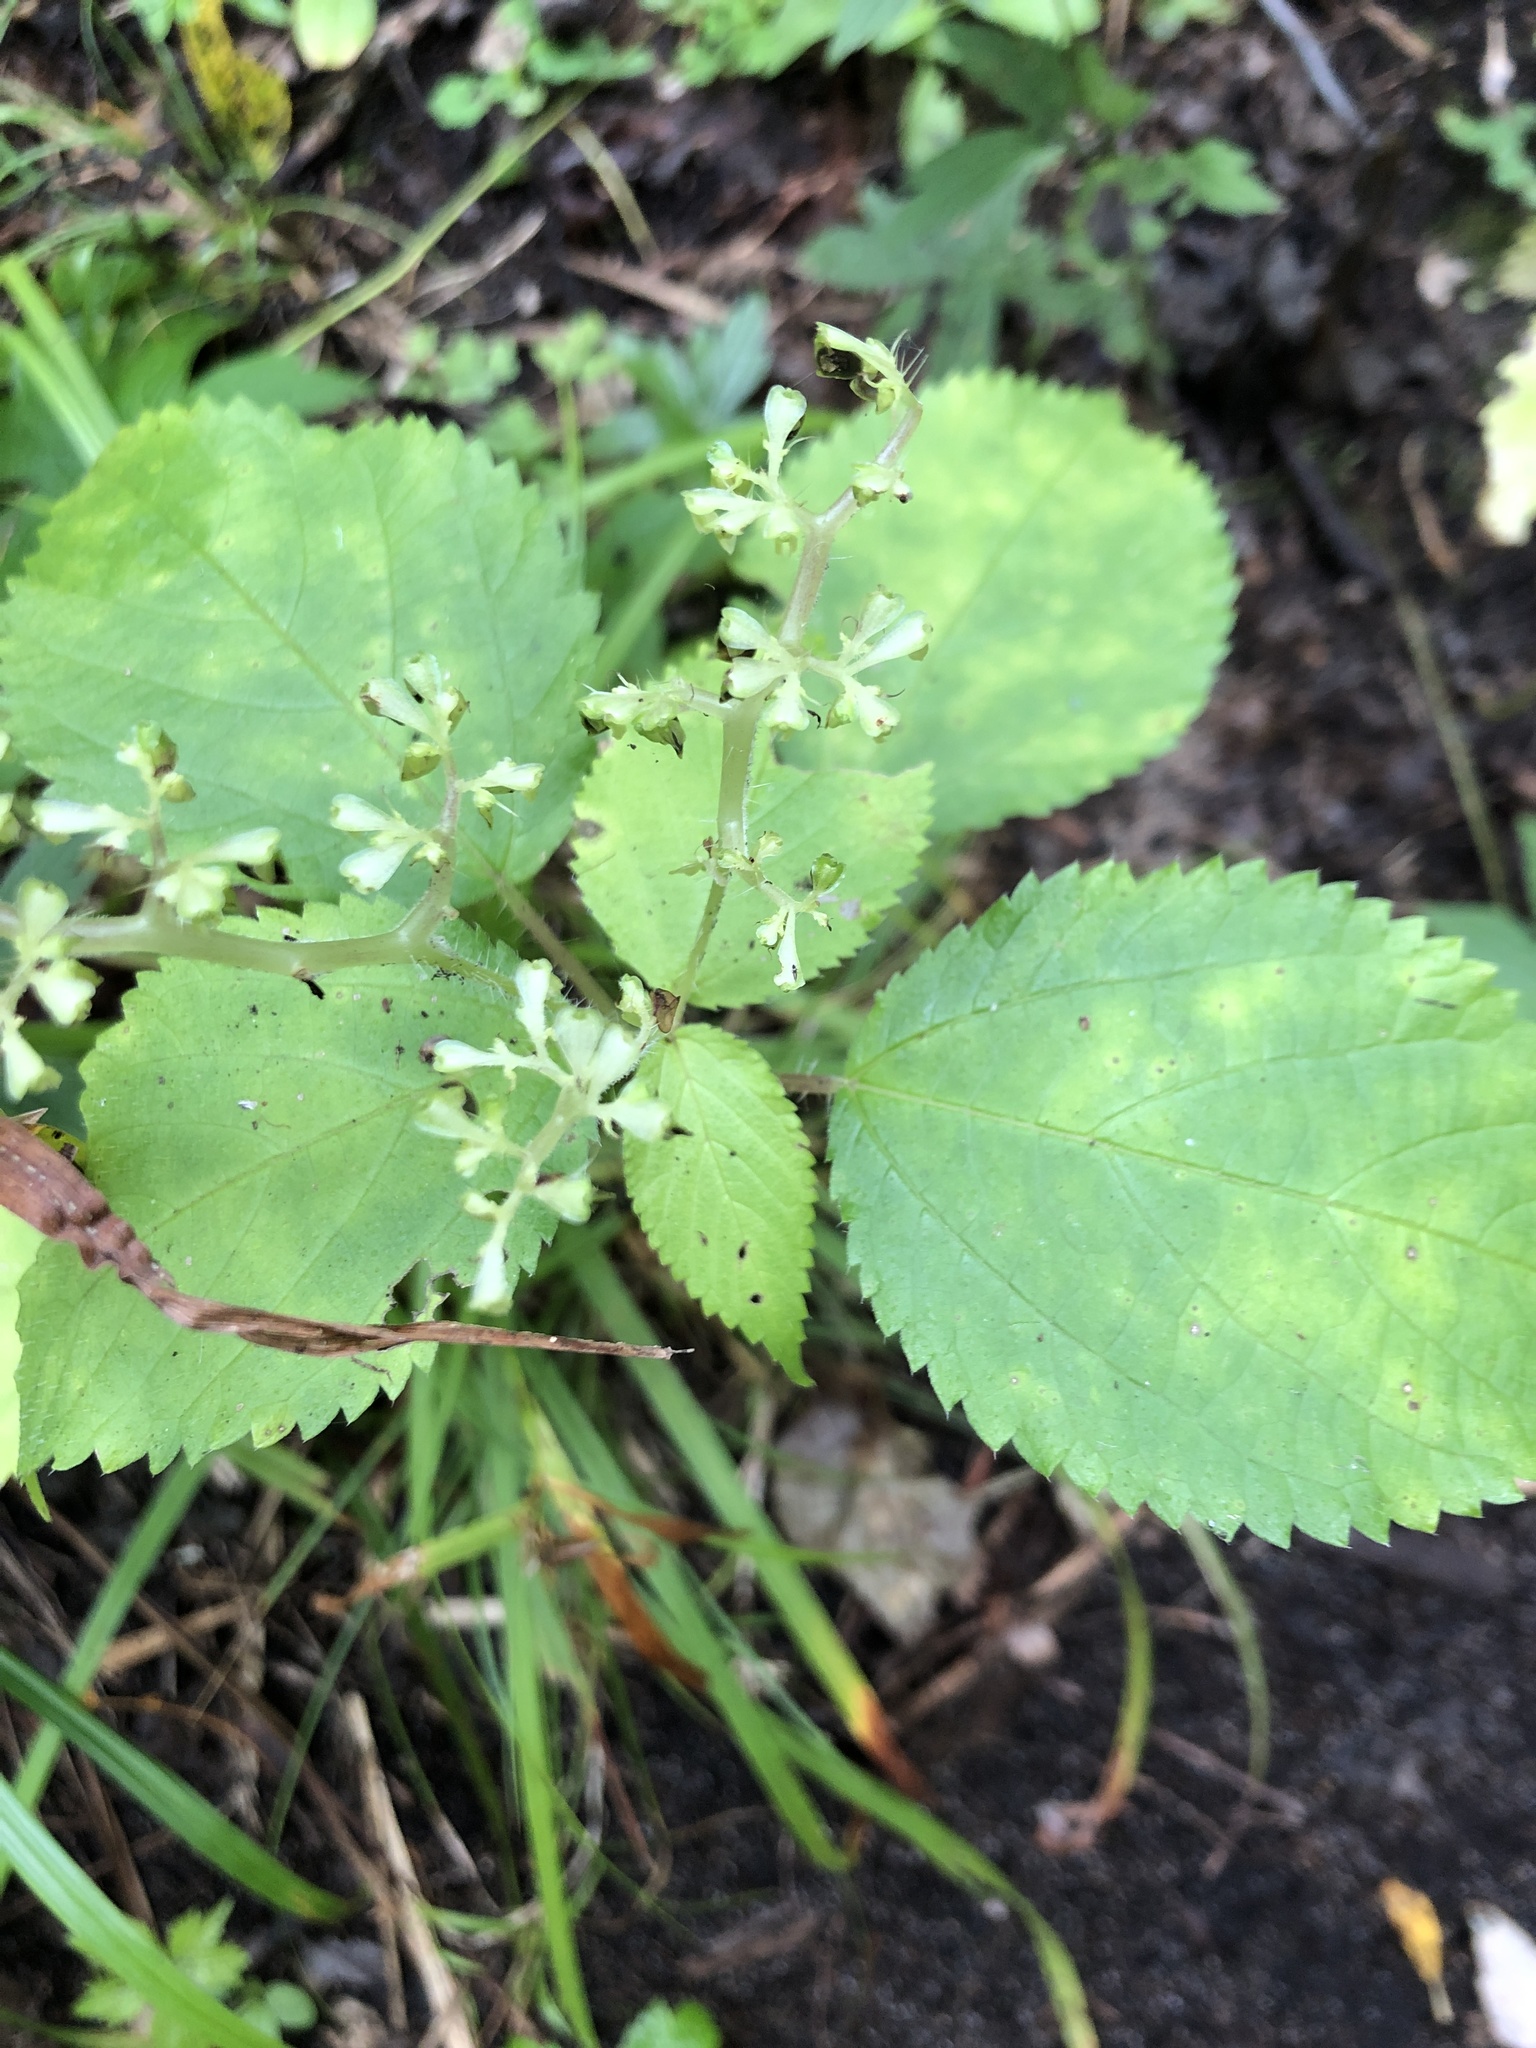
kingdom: Plantae
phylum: Tracheophyta
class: Magnoliopsida
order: Rosales
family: Urticaceae
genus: Laportea
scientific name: Laportea canadensis
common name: Canada nettle
